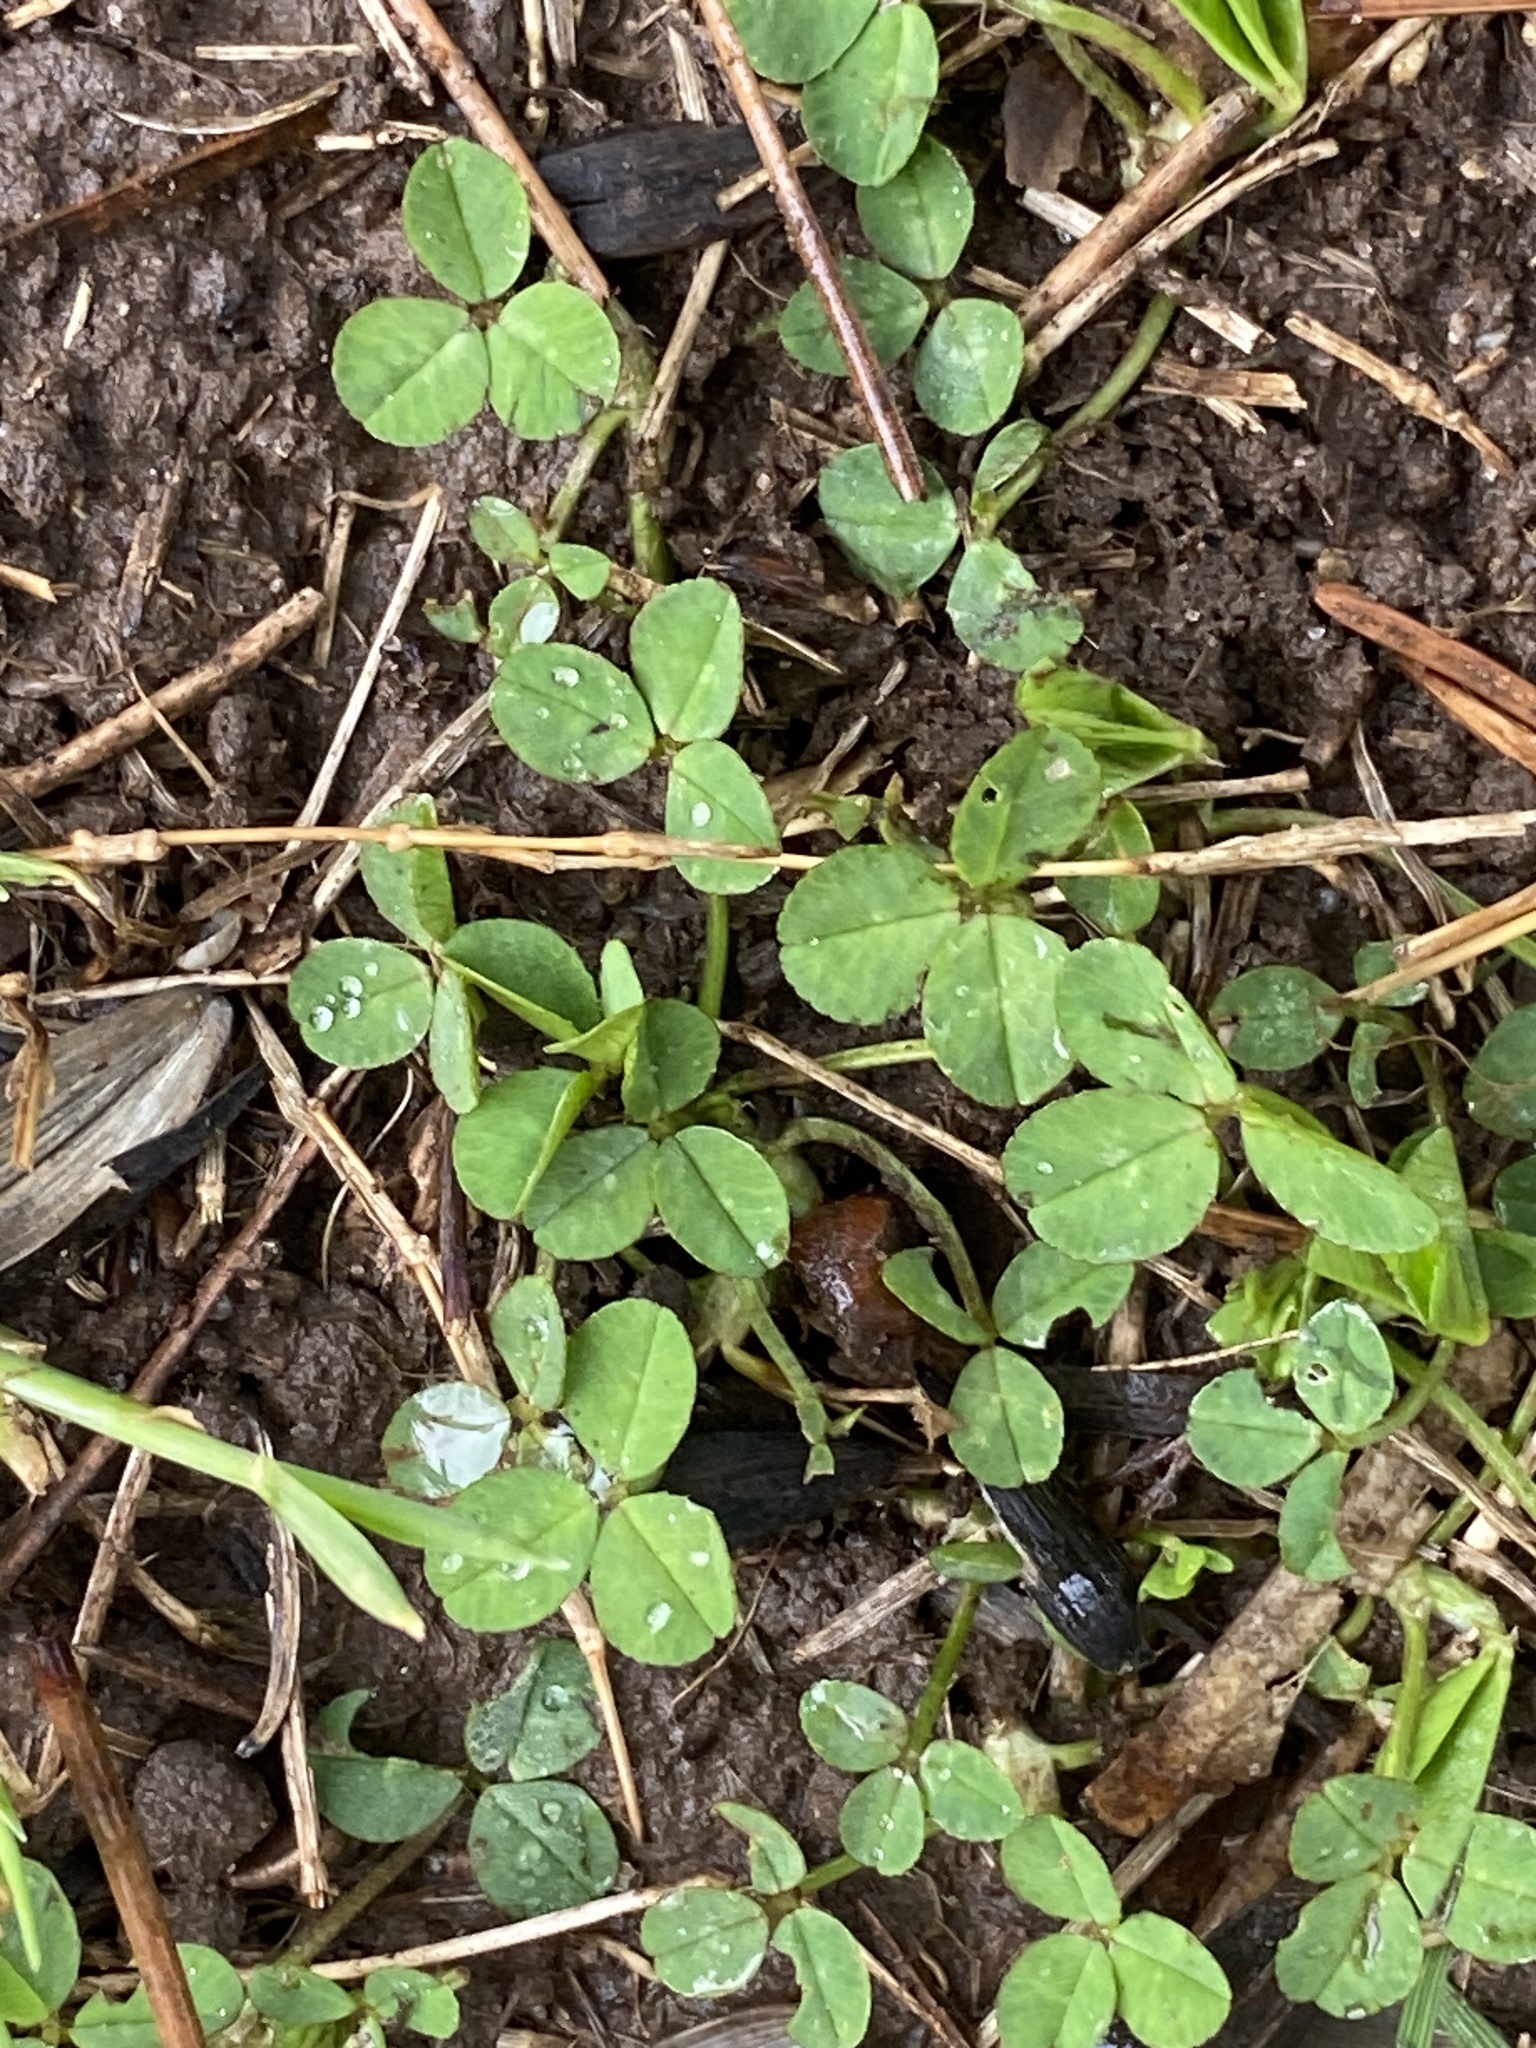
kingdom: Plantae
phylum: Tracheophyta
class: Magnoliopsida
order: Fabales
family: Fabaceae
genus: Trifolium
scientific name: Trifolium repens
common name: White clover
